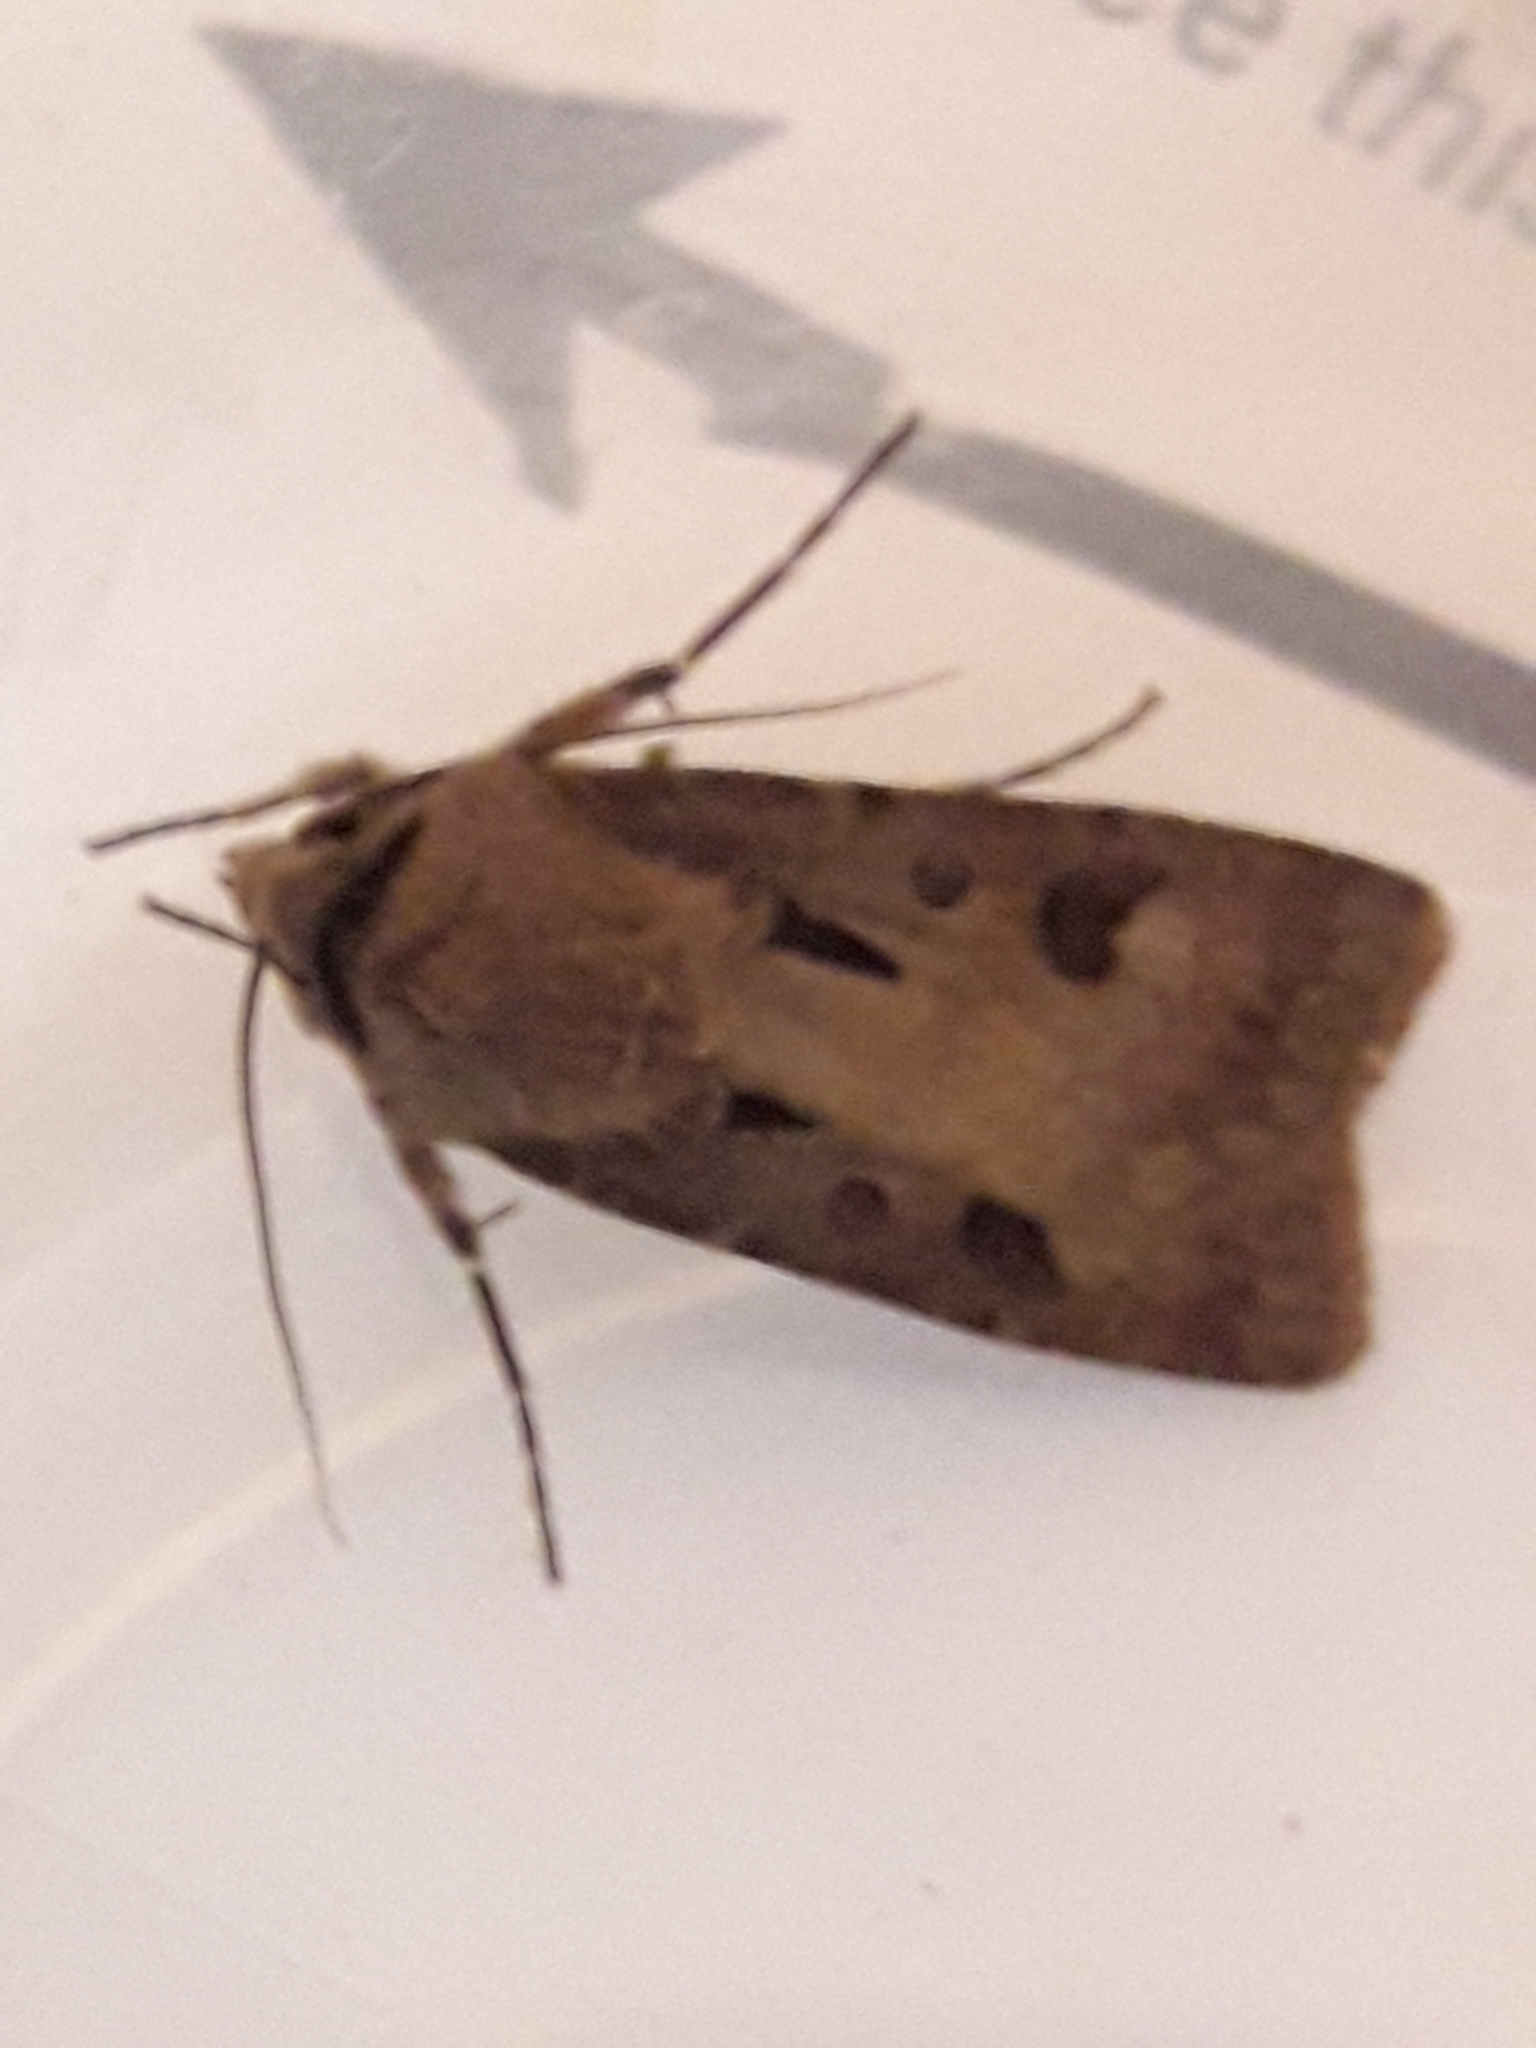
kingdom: Animalia
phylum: Arthropoda
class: Insecta
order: Lepidoptera
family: Noctuidae
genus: Agrotis
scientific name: Agrotis exclamationis
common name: Heart and dart
